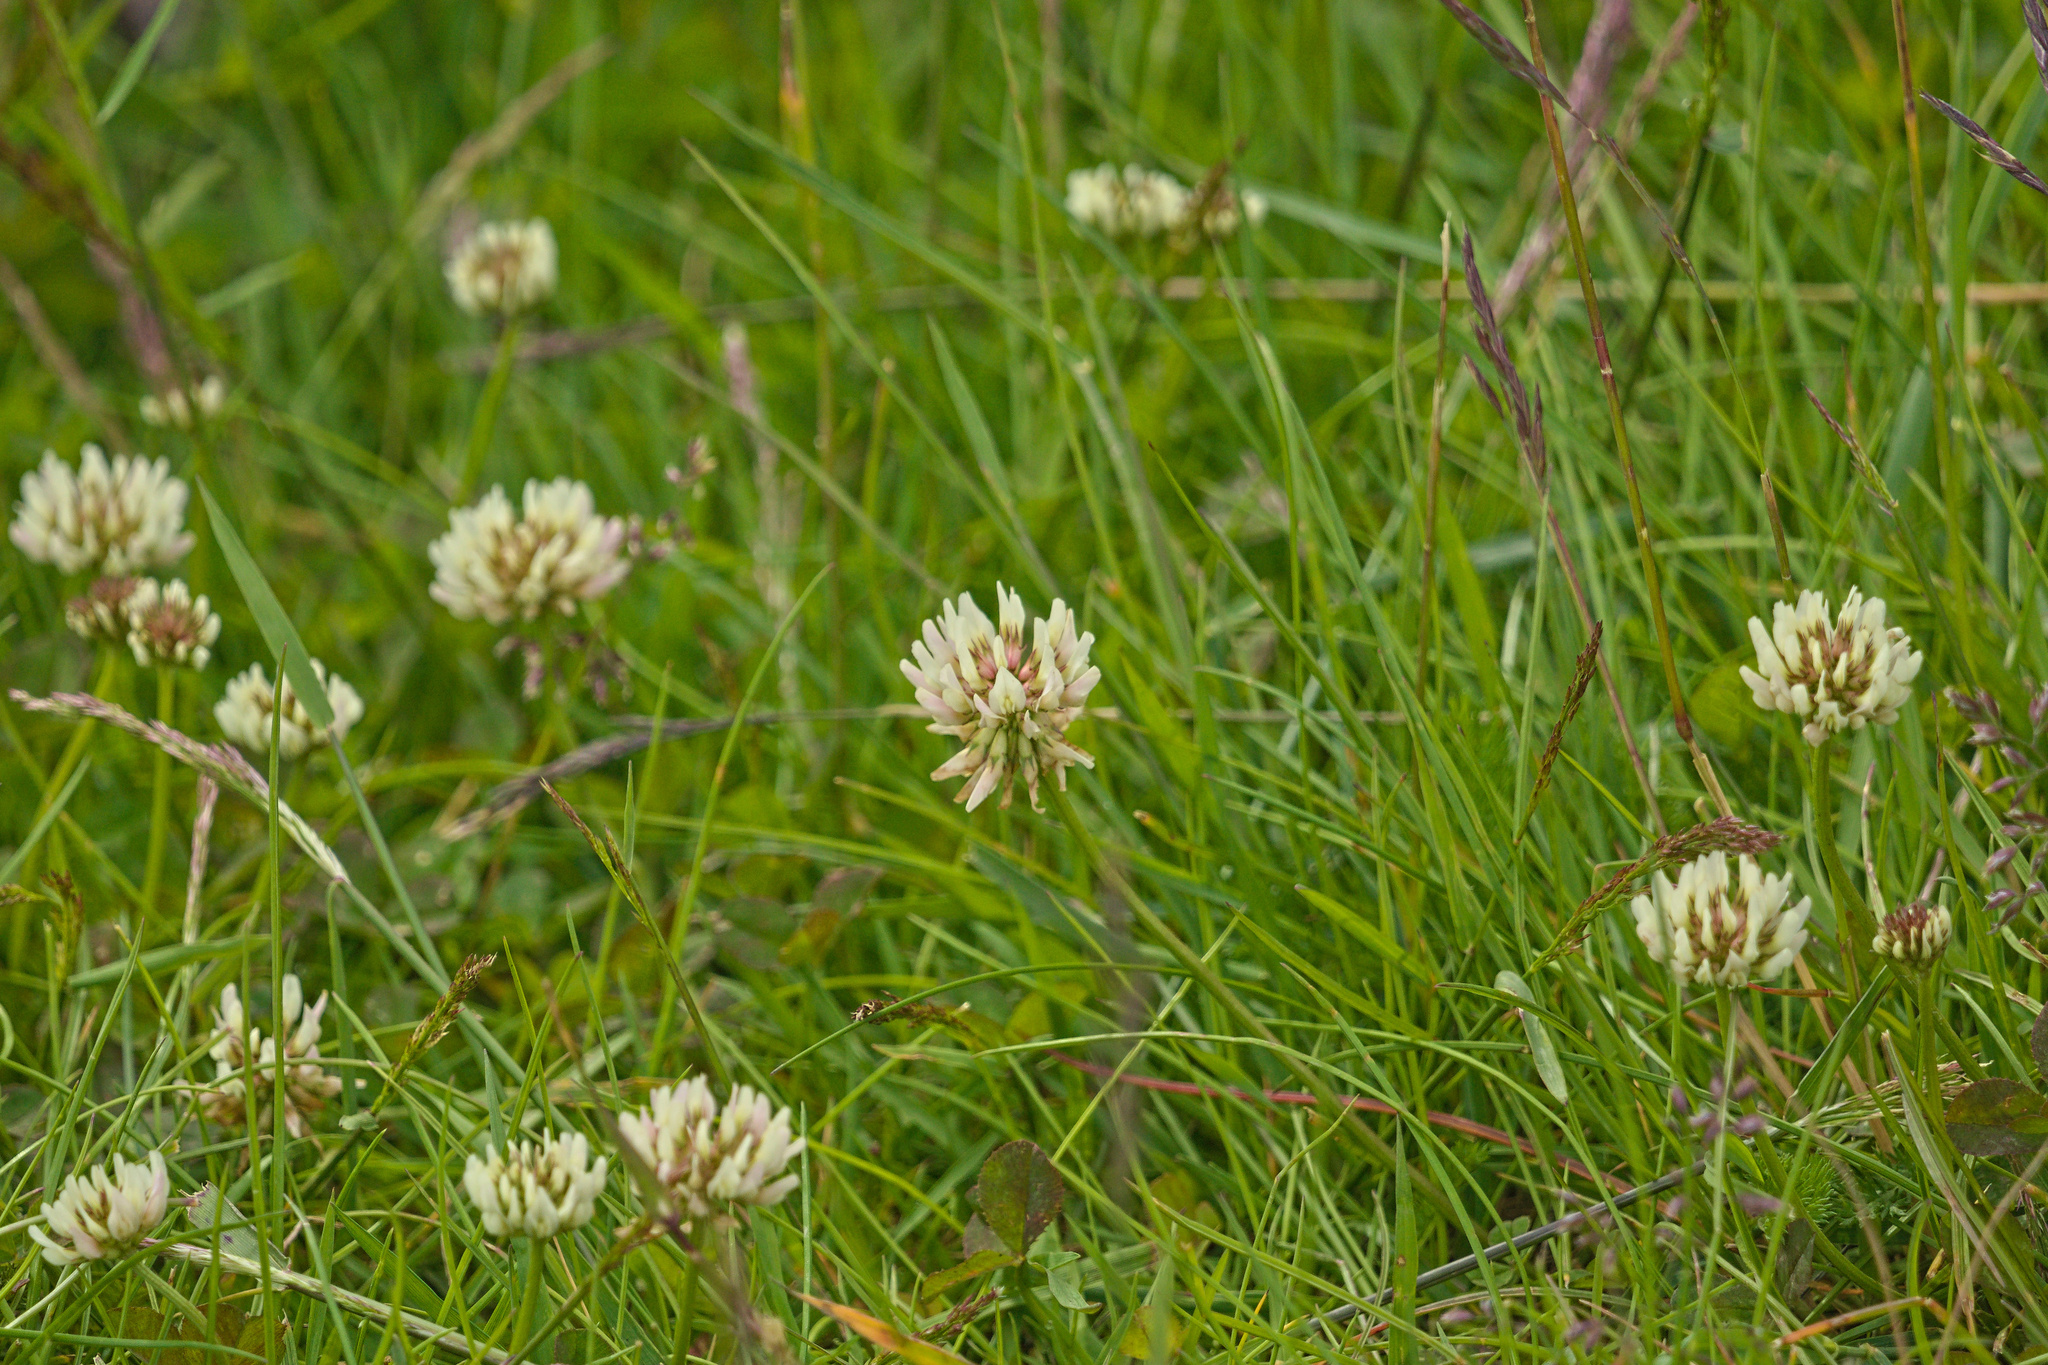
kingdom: Plantae
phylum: Tracheophyta
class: Magnoliopsida
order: Fabales
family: Fabaceae
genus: Trifolium
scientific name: Trifolium repens
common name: White clover
